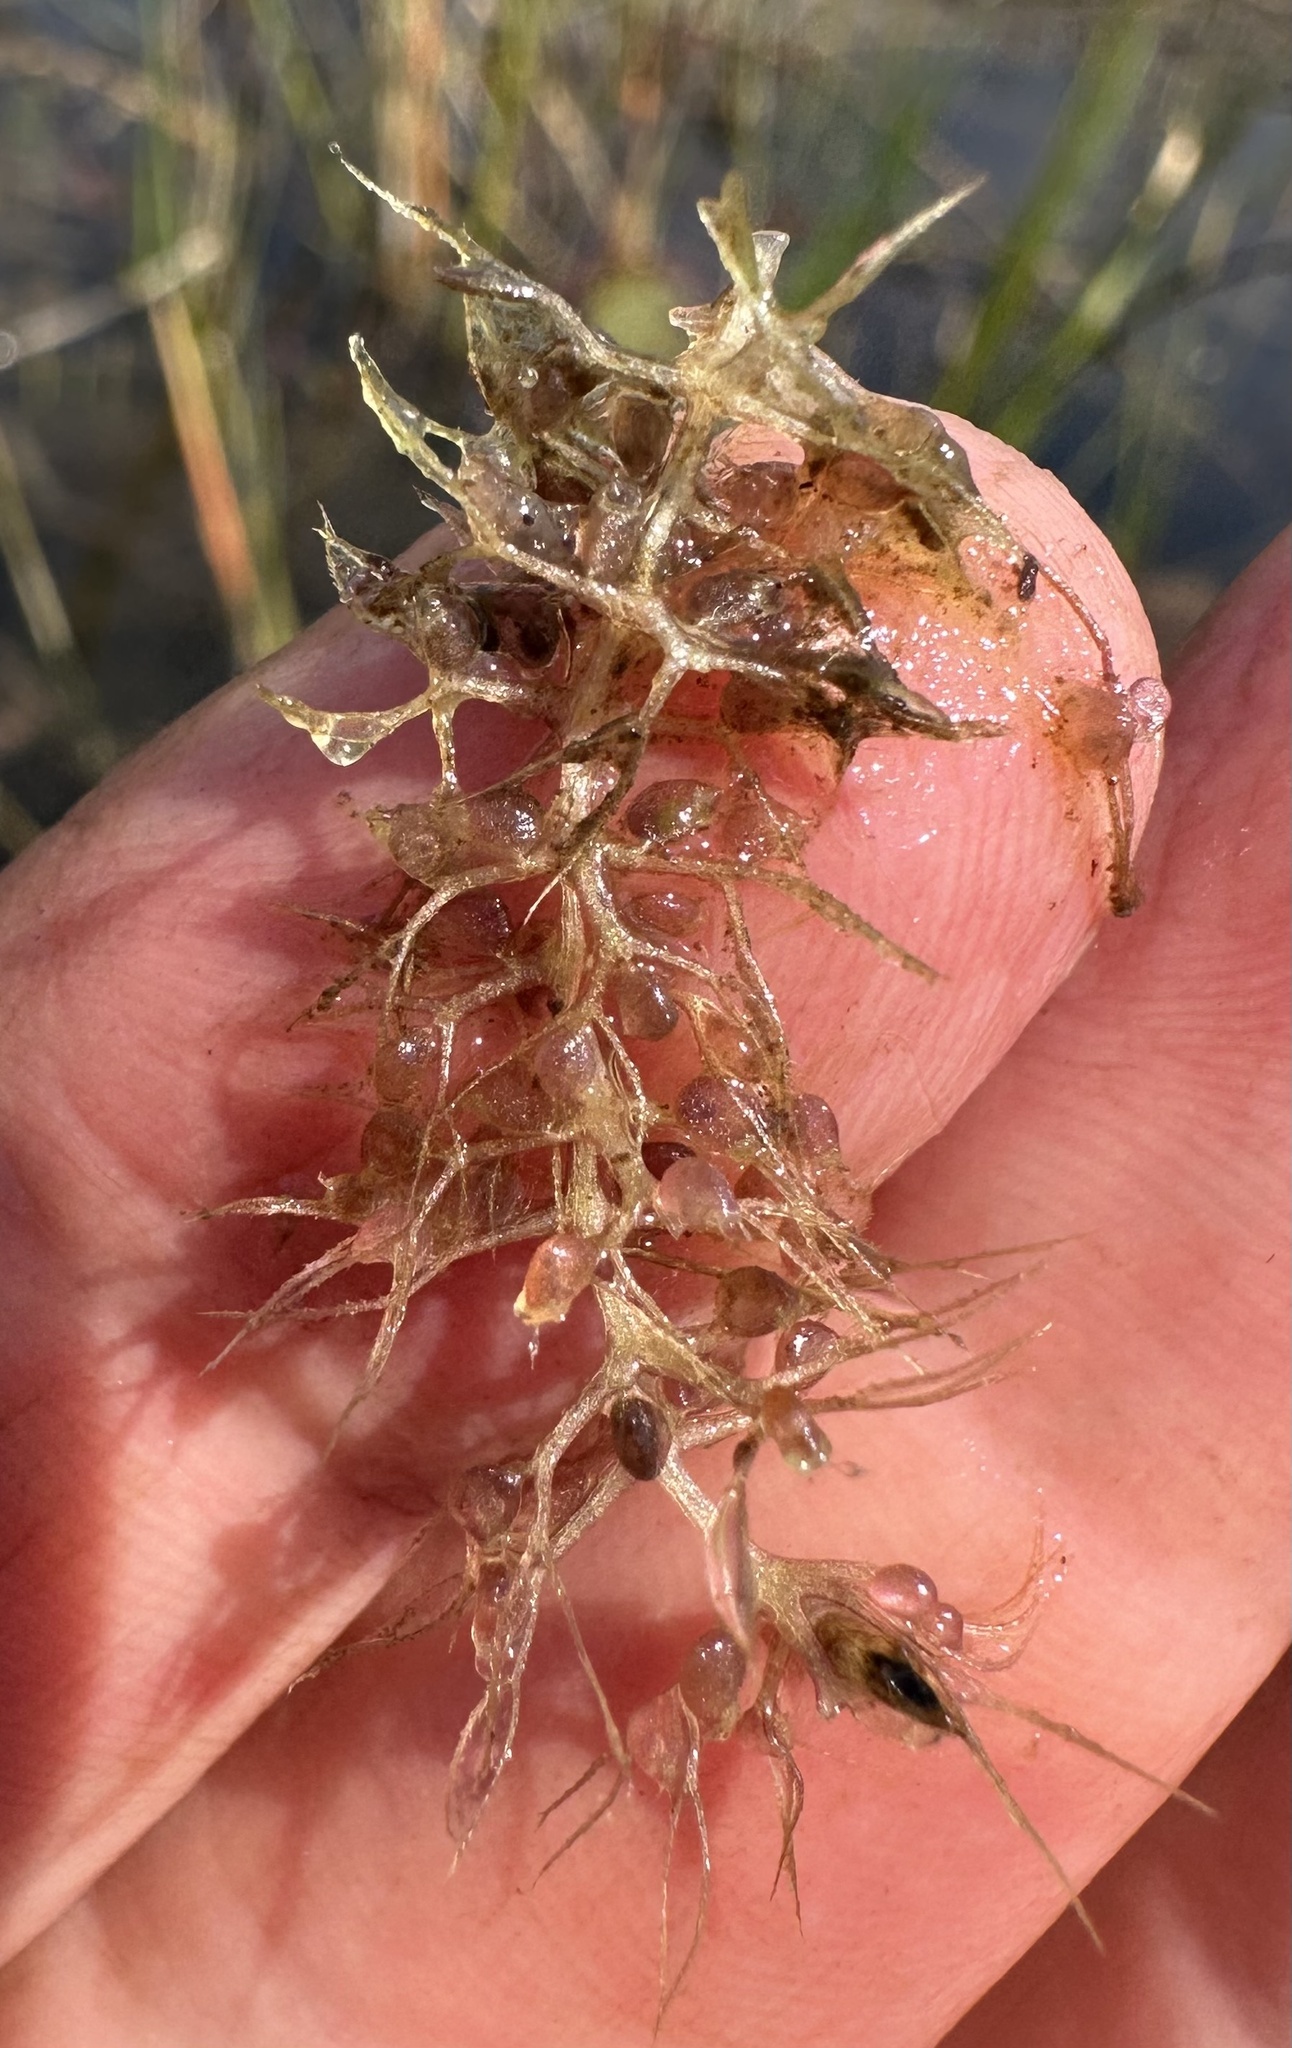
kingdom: Plantae
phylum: Tracheophyta
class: Magnoliopsida
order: Lamiales
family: Lentibulariaceae
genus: Utricularia
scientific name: Utricularia raynalii
